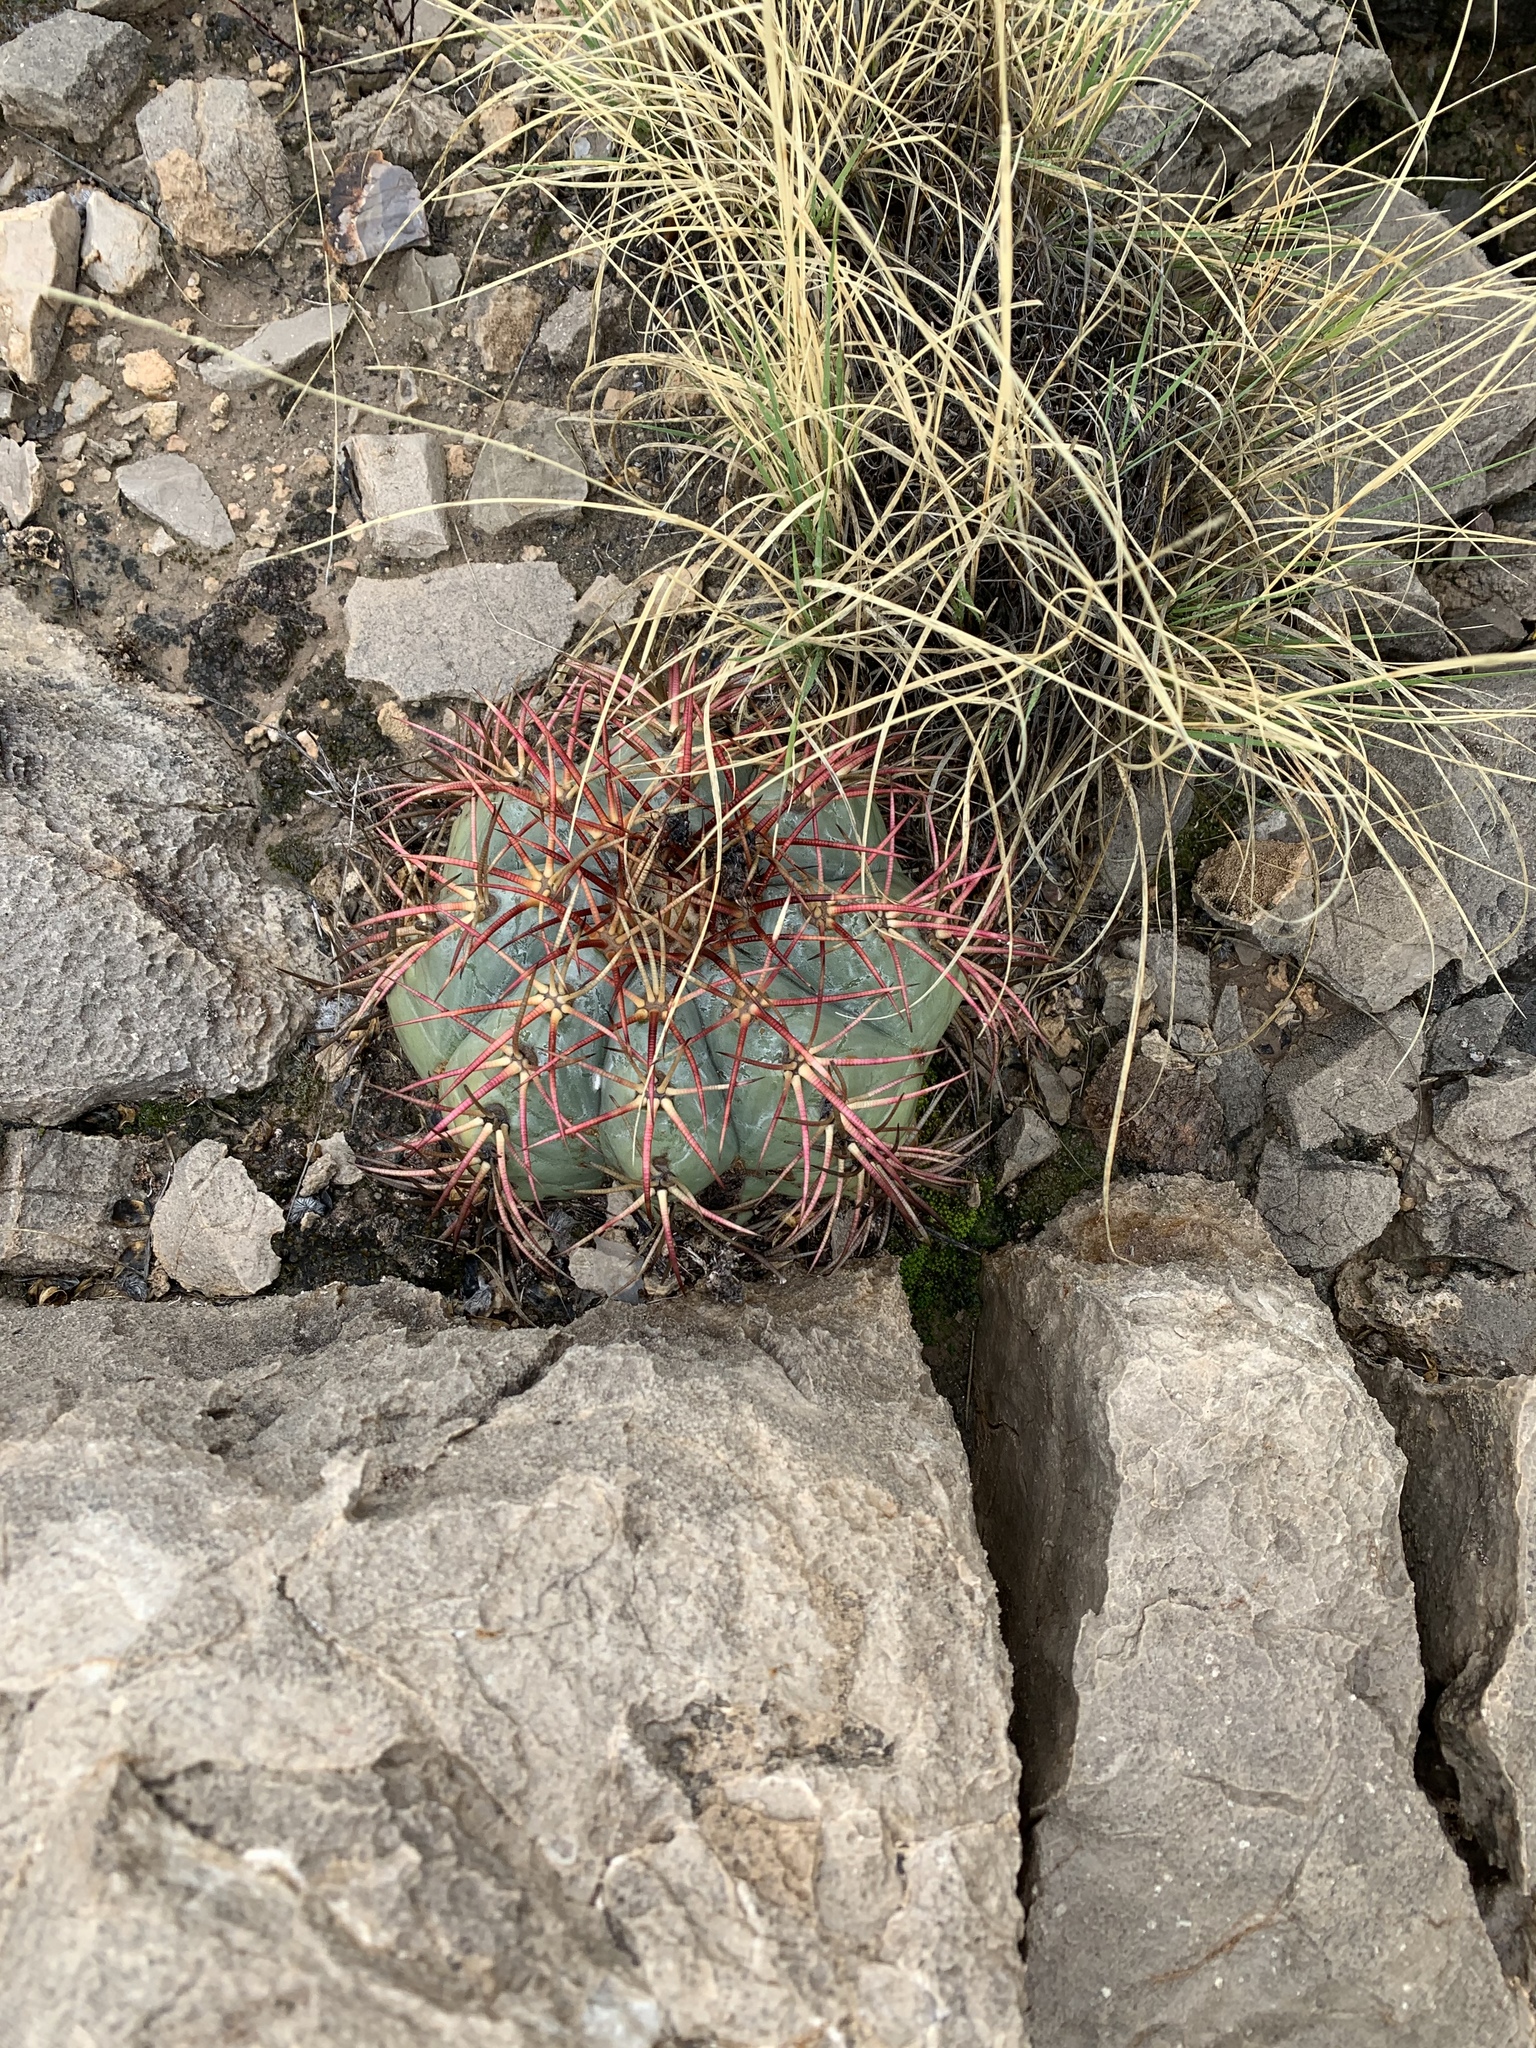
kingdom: Plantae
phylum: Tracheophyta
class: Magnoliopsida
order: Caryophyllales
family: Cactaceae
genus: Echinocactus
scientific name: Echinocactus horizonthalonius
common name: Devilshead
